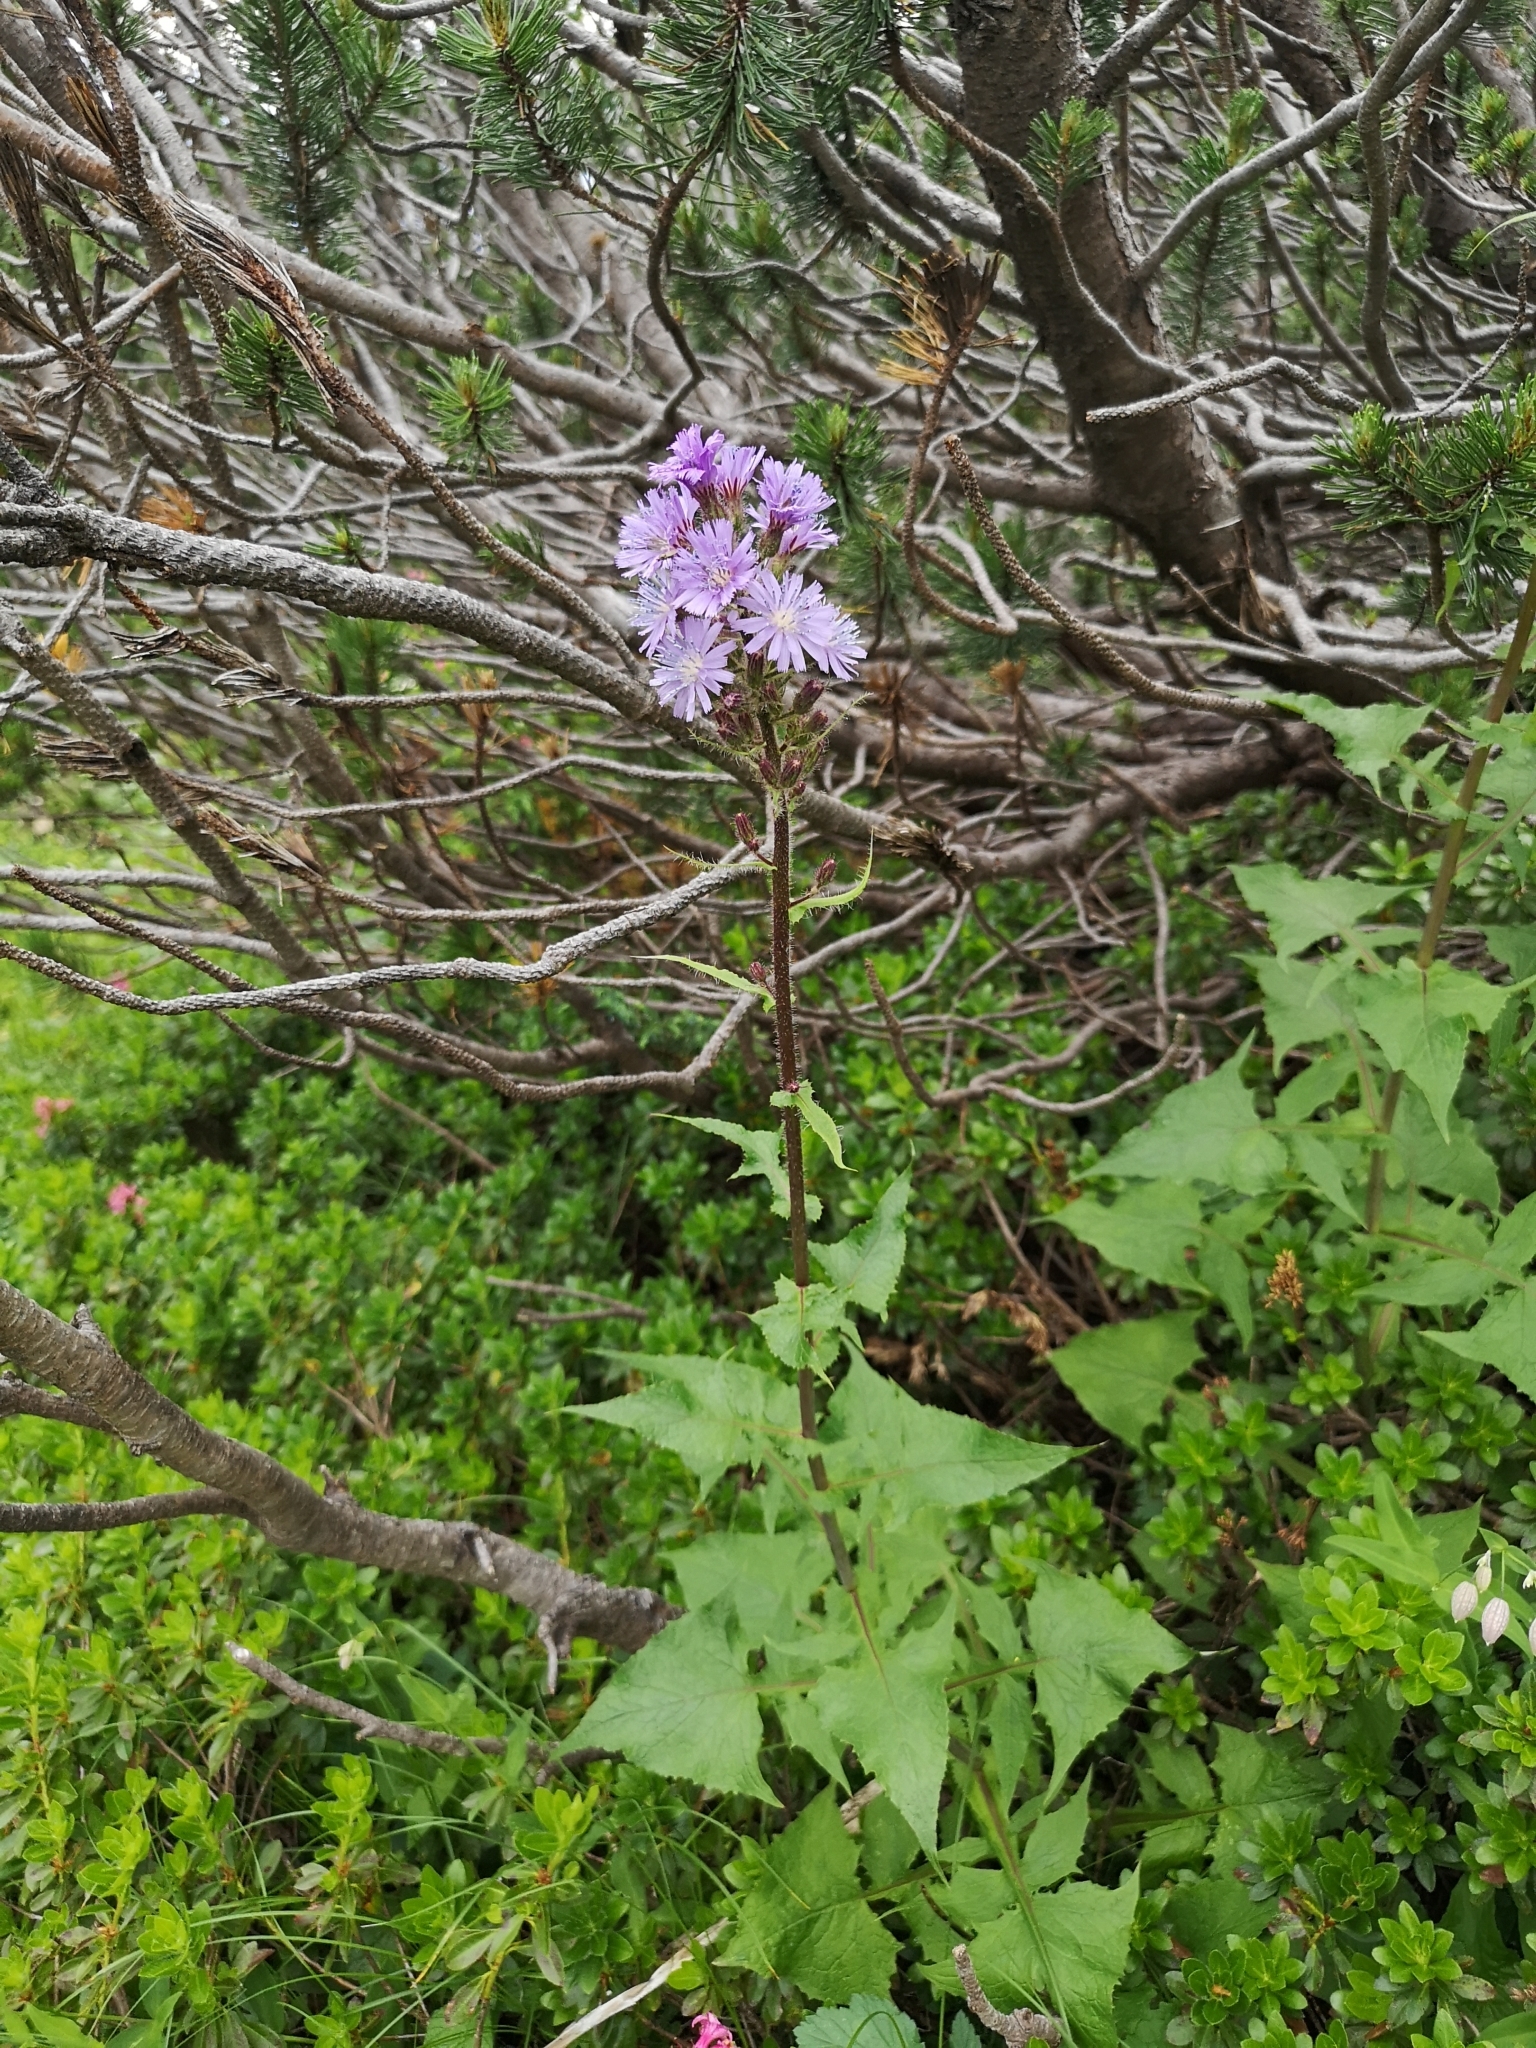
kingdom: Plantae
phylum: Tracheophyta
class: Magnoliopsida
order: Asterales
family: Asteraceae
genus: Cicerbita
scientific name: Cicerbita alpina
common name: Alpine blue-sow-thistle
